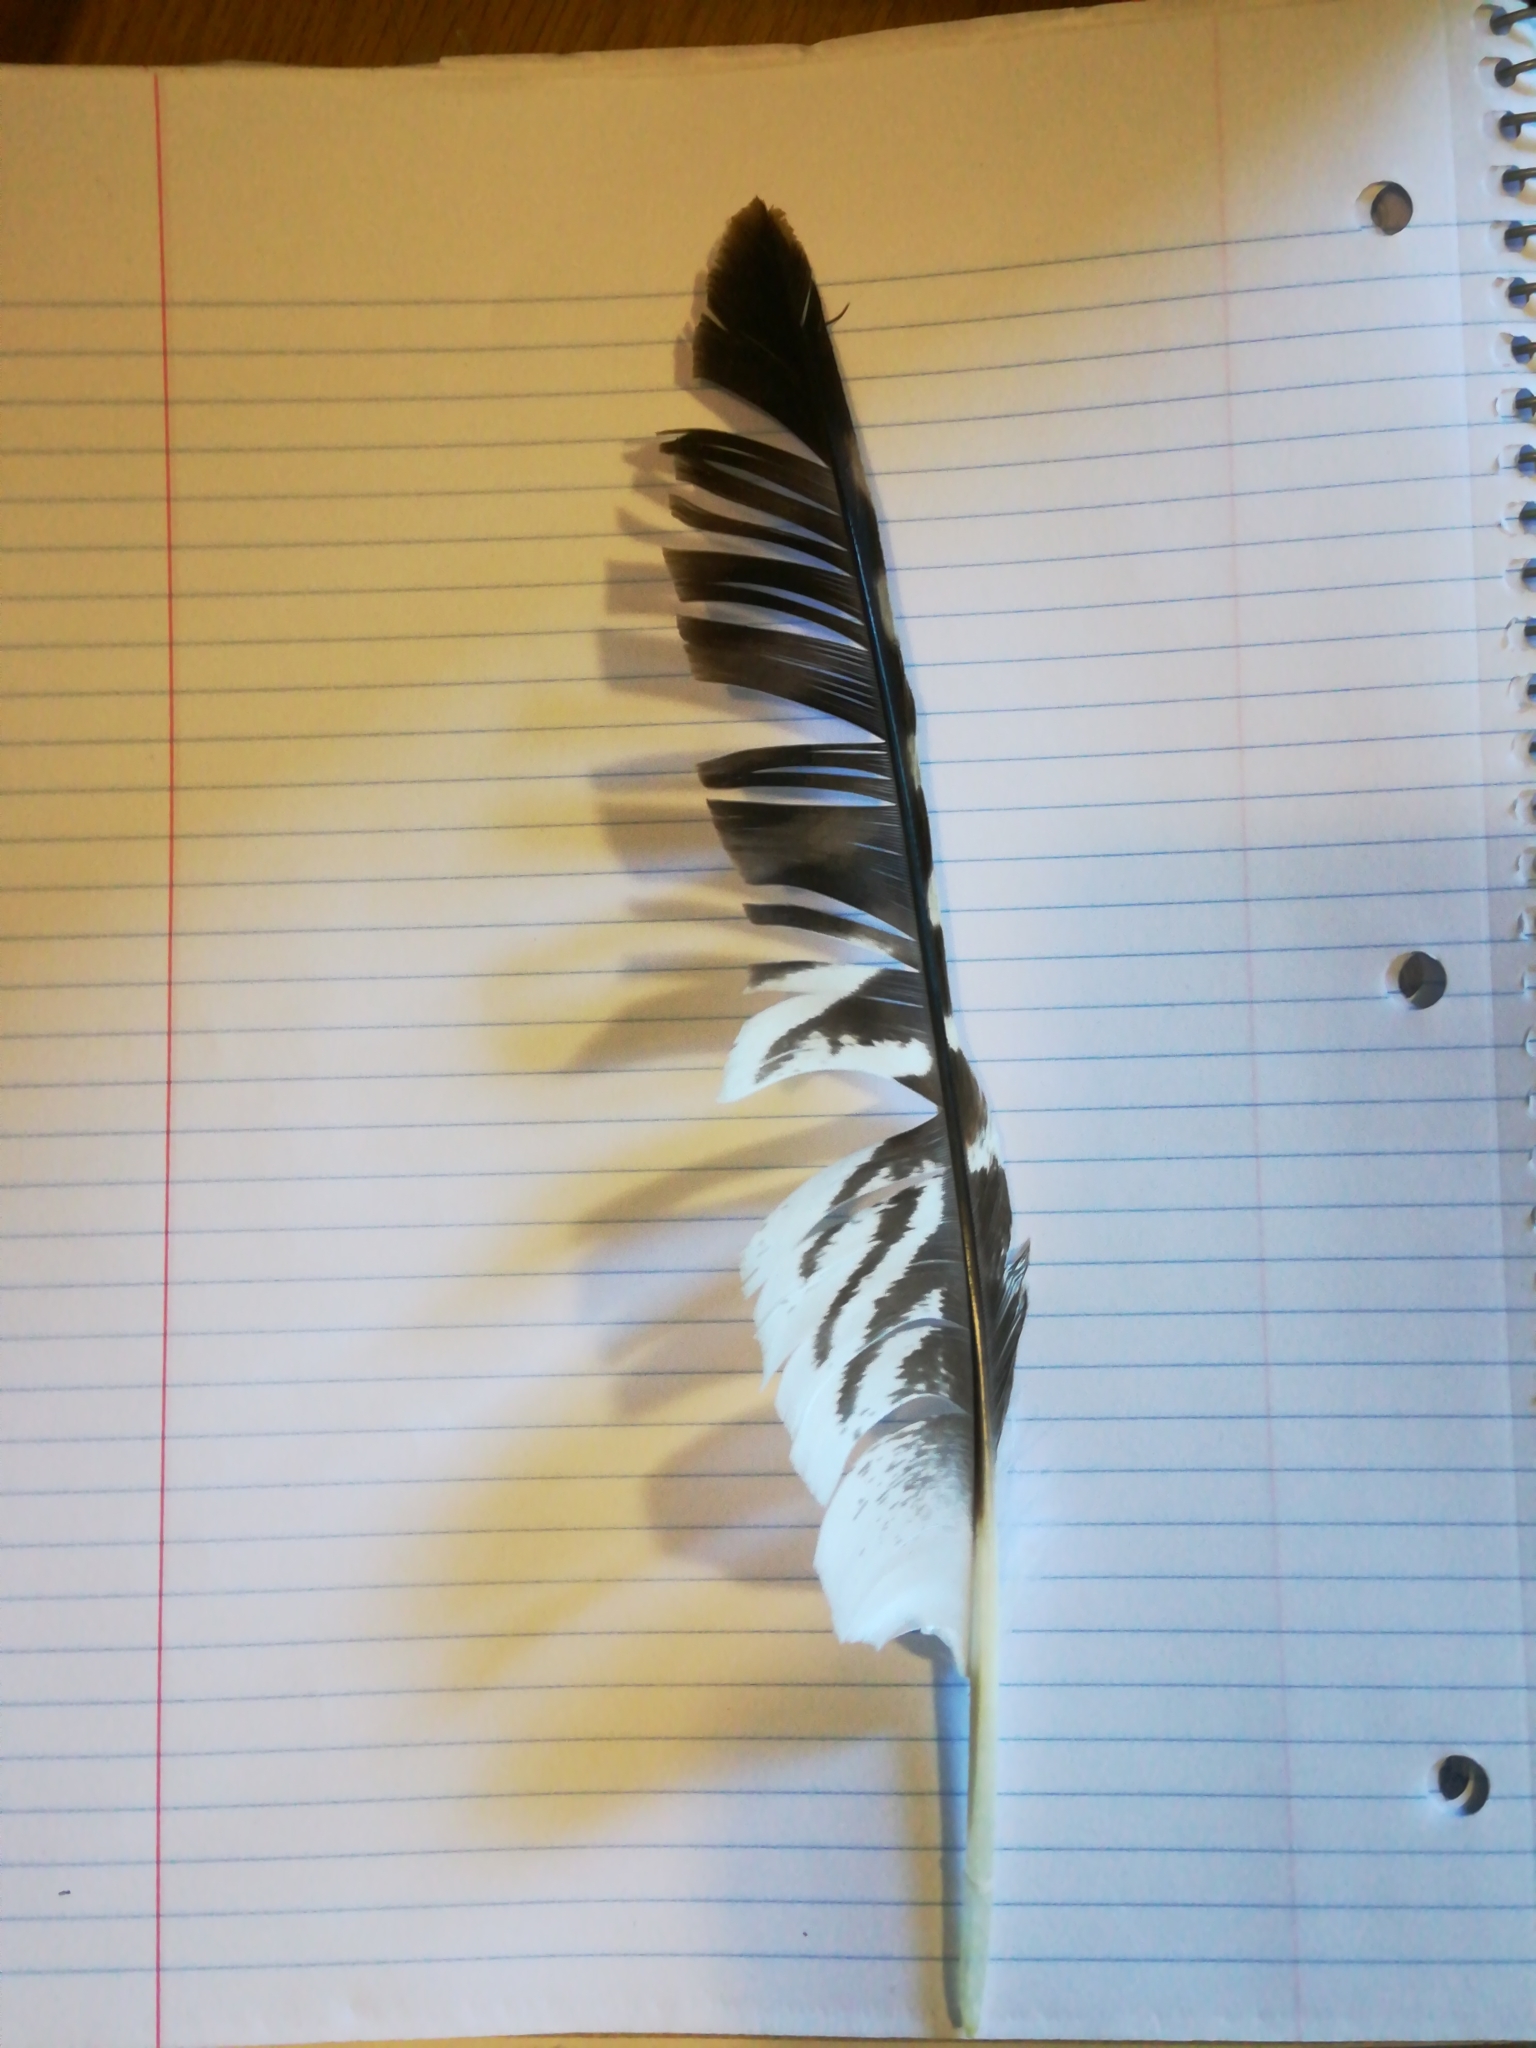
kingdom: Animalia
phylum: Chordata
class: Aves
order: Accipitriformes
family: Accipitridae
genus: Buteo
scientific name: Buteo lineatus
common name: Red-shouldered hawk
